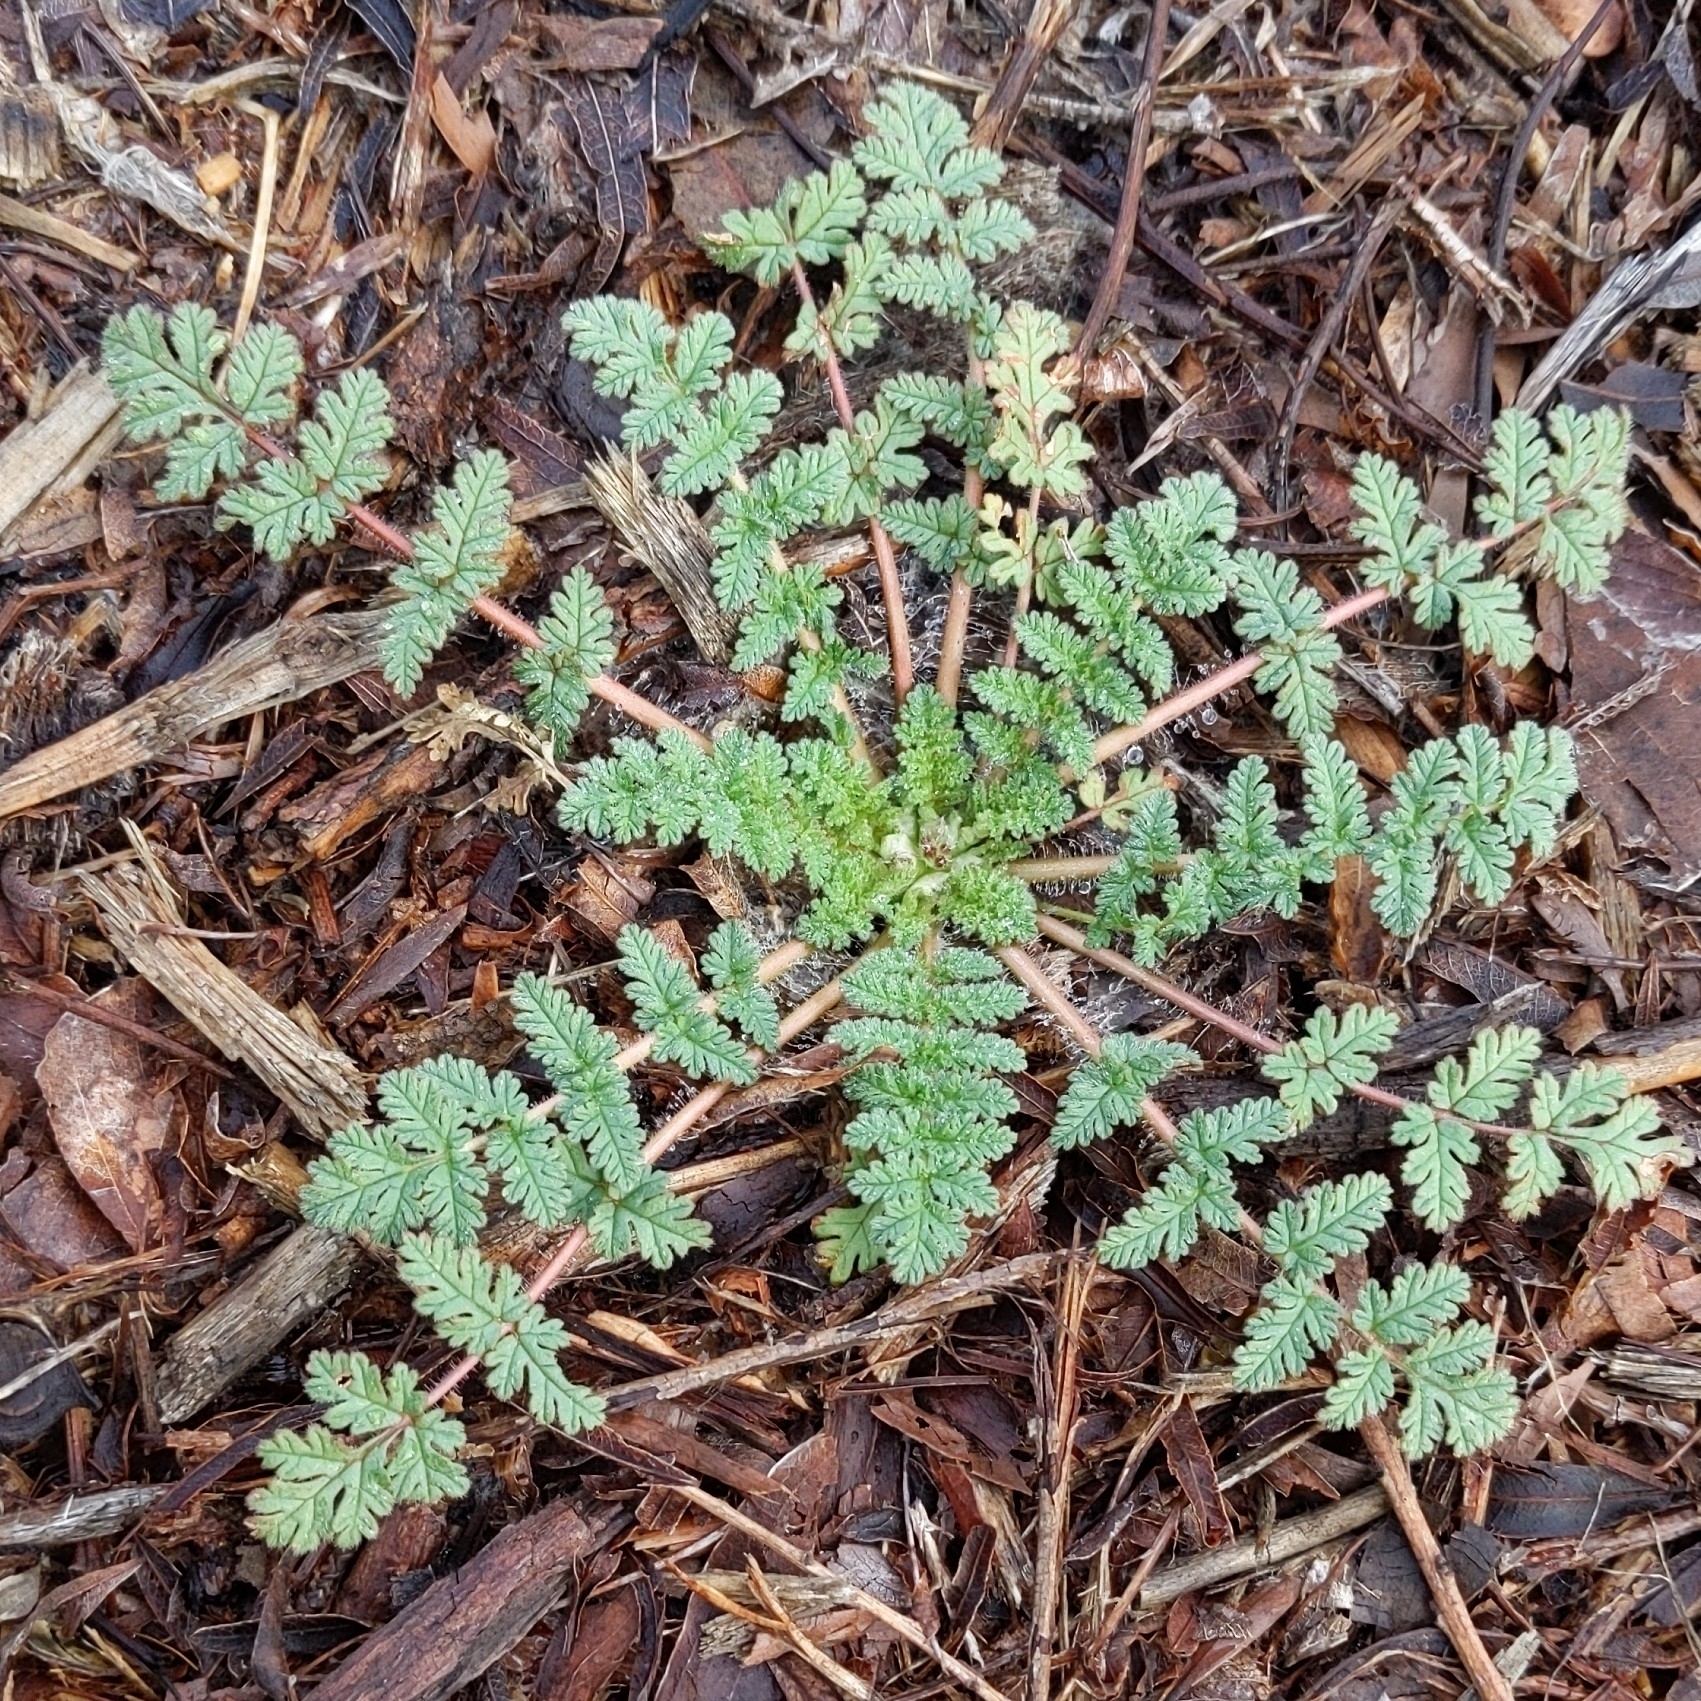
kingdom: Plantae
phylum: Tracheophyta
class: Magnoliopsida
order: Geraniales
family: Geraniaceae
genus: Erodium
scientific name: Erodium cicutarium
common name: Common stork's-bill
